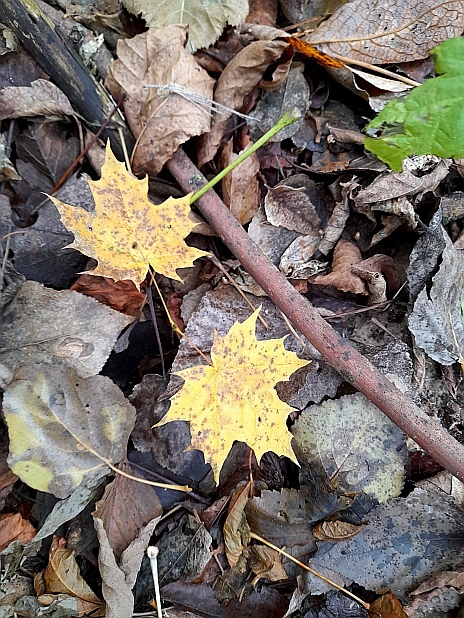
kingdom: Plantae
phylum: Tracheophyta
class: Magnoliopsida
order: Sapindales
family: Sapindaceae
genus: Acer
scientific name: Acer platanoides
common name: Norway maple
